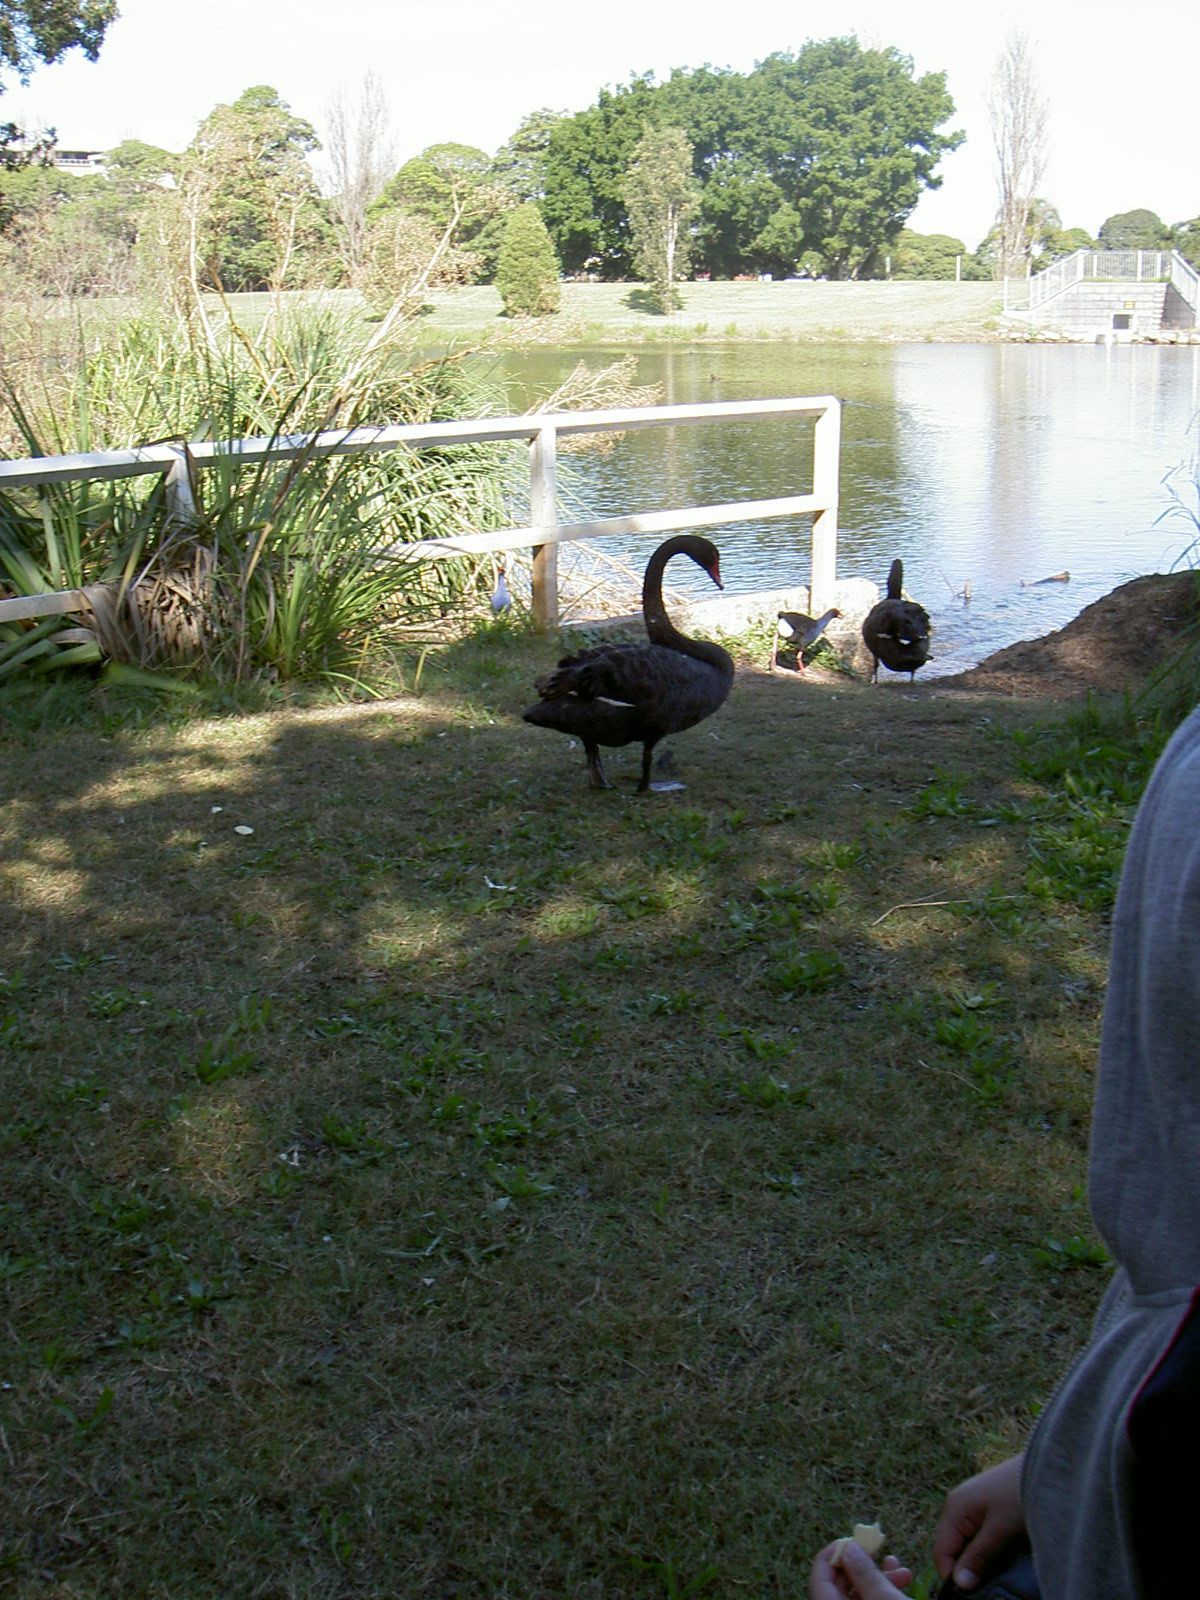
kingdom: Animalia
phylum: Chordata
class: Aves
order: Anseriformes
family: Anatidae
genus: Cygnus
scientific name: Cygnus atratus
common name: Black swan
